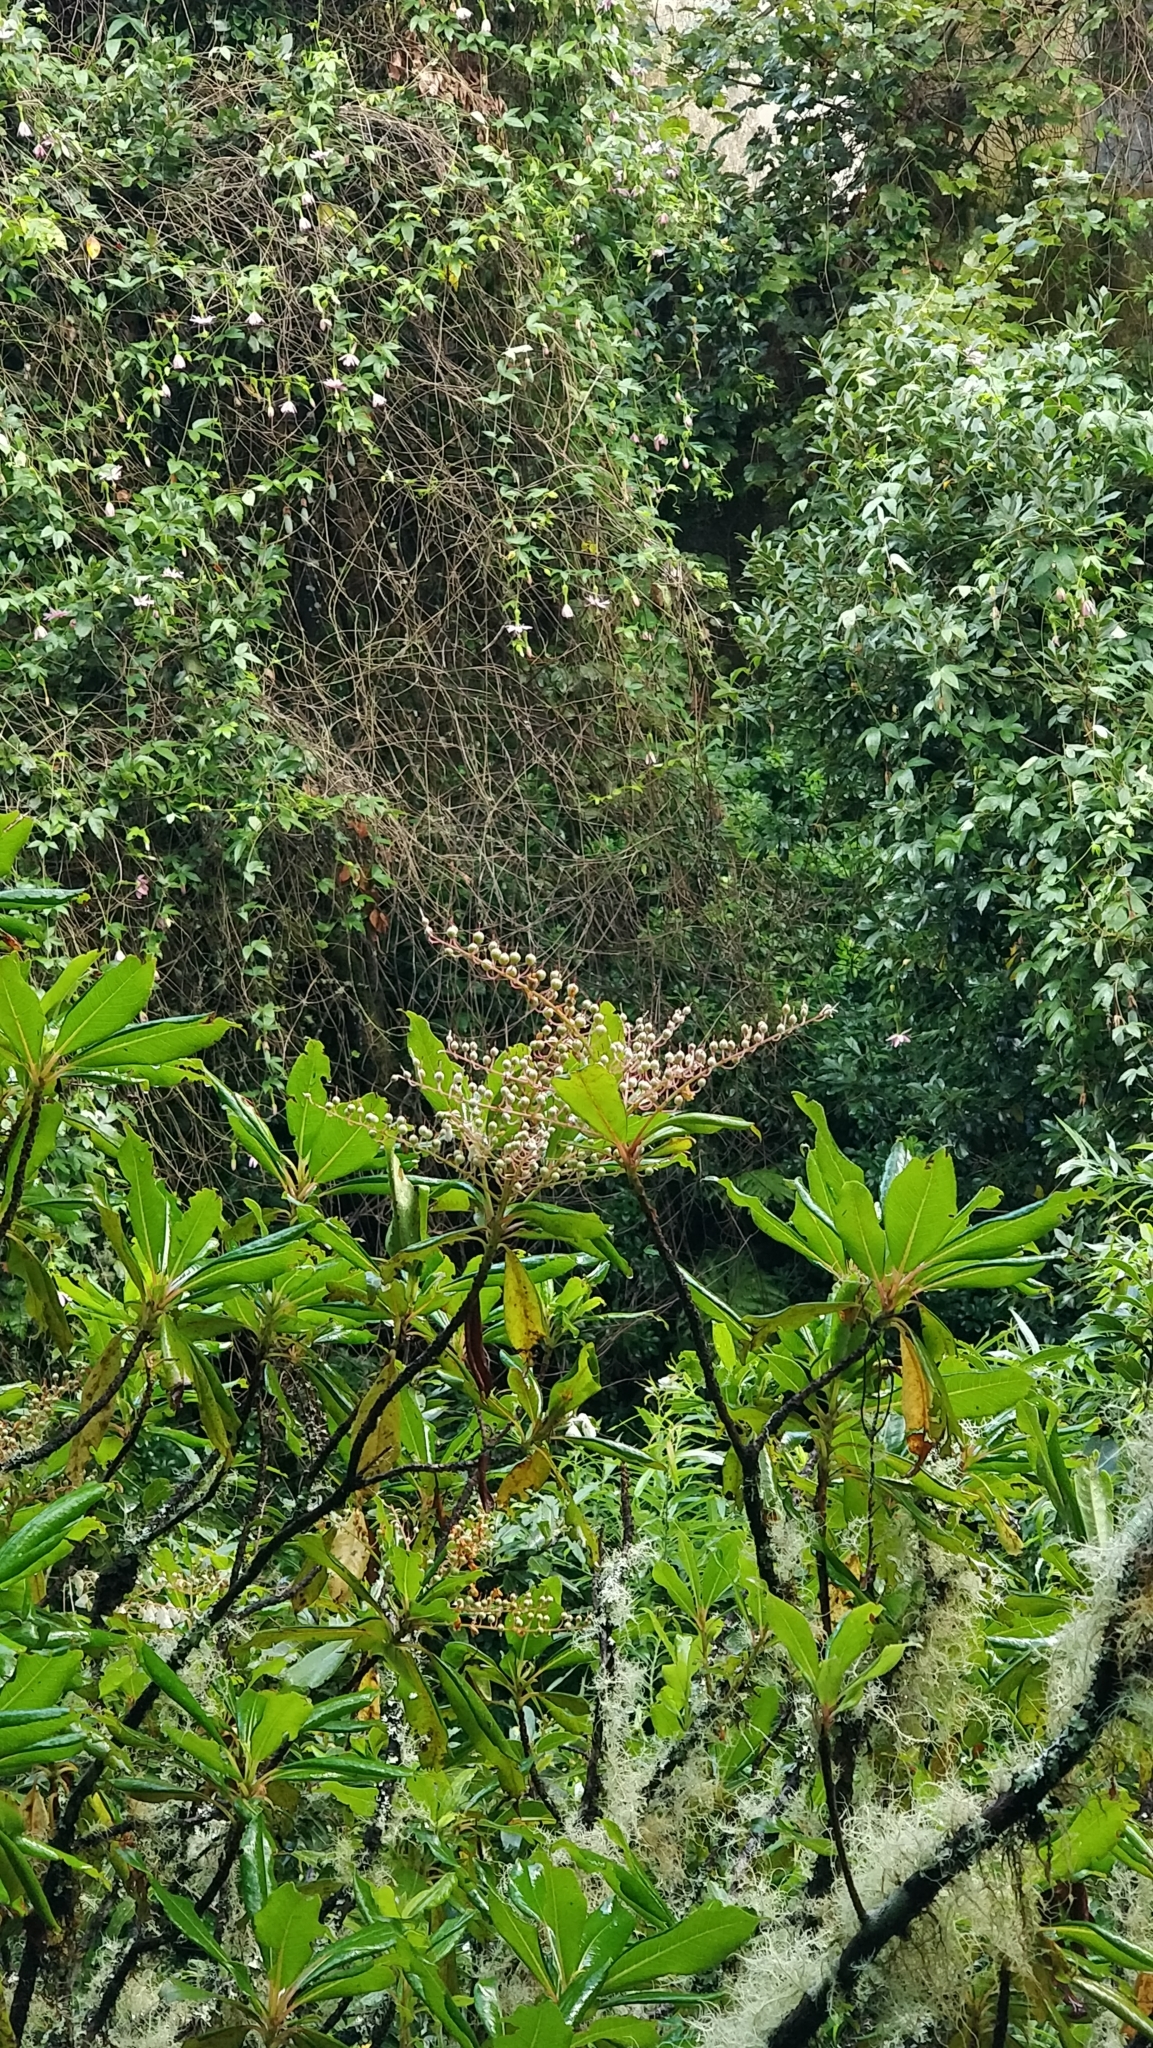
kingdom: Plantae
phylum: Tracheophyta
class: Magnoliopsida
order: Ericales
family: Clethraceae
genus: Clethra
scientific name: Clethra arborea
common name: Lily-of-the-valley-tree
